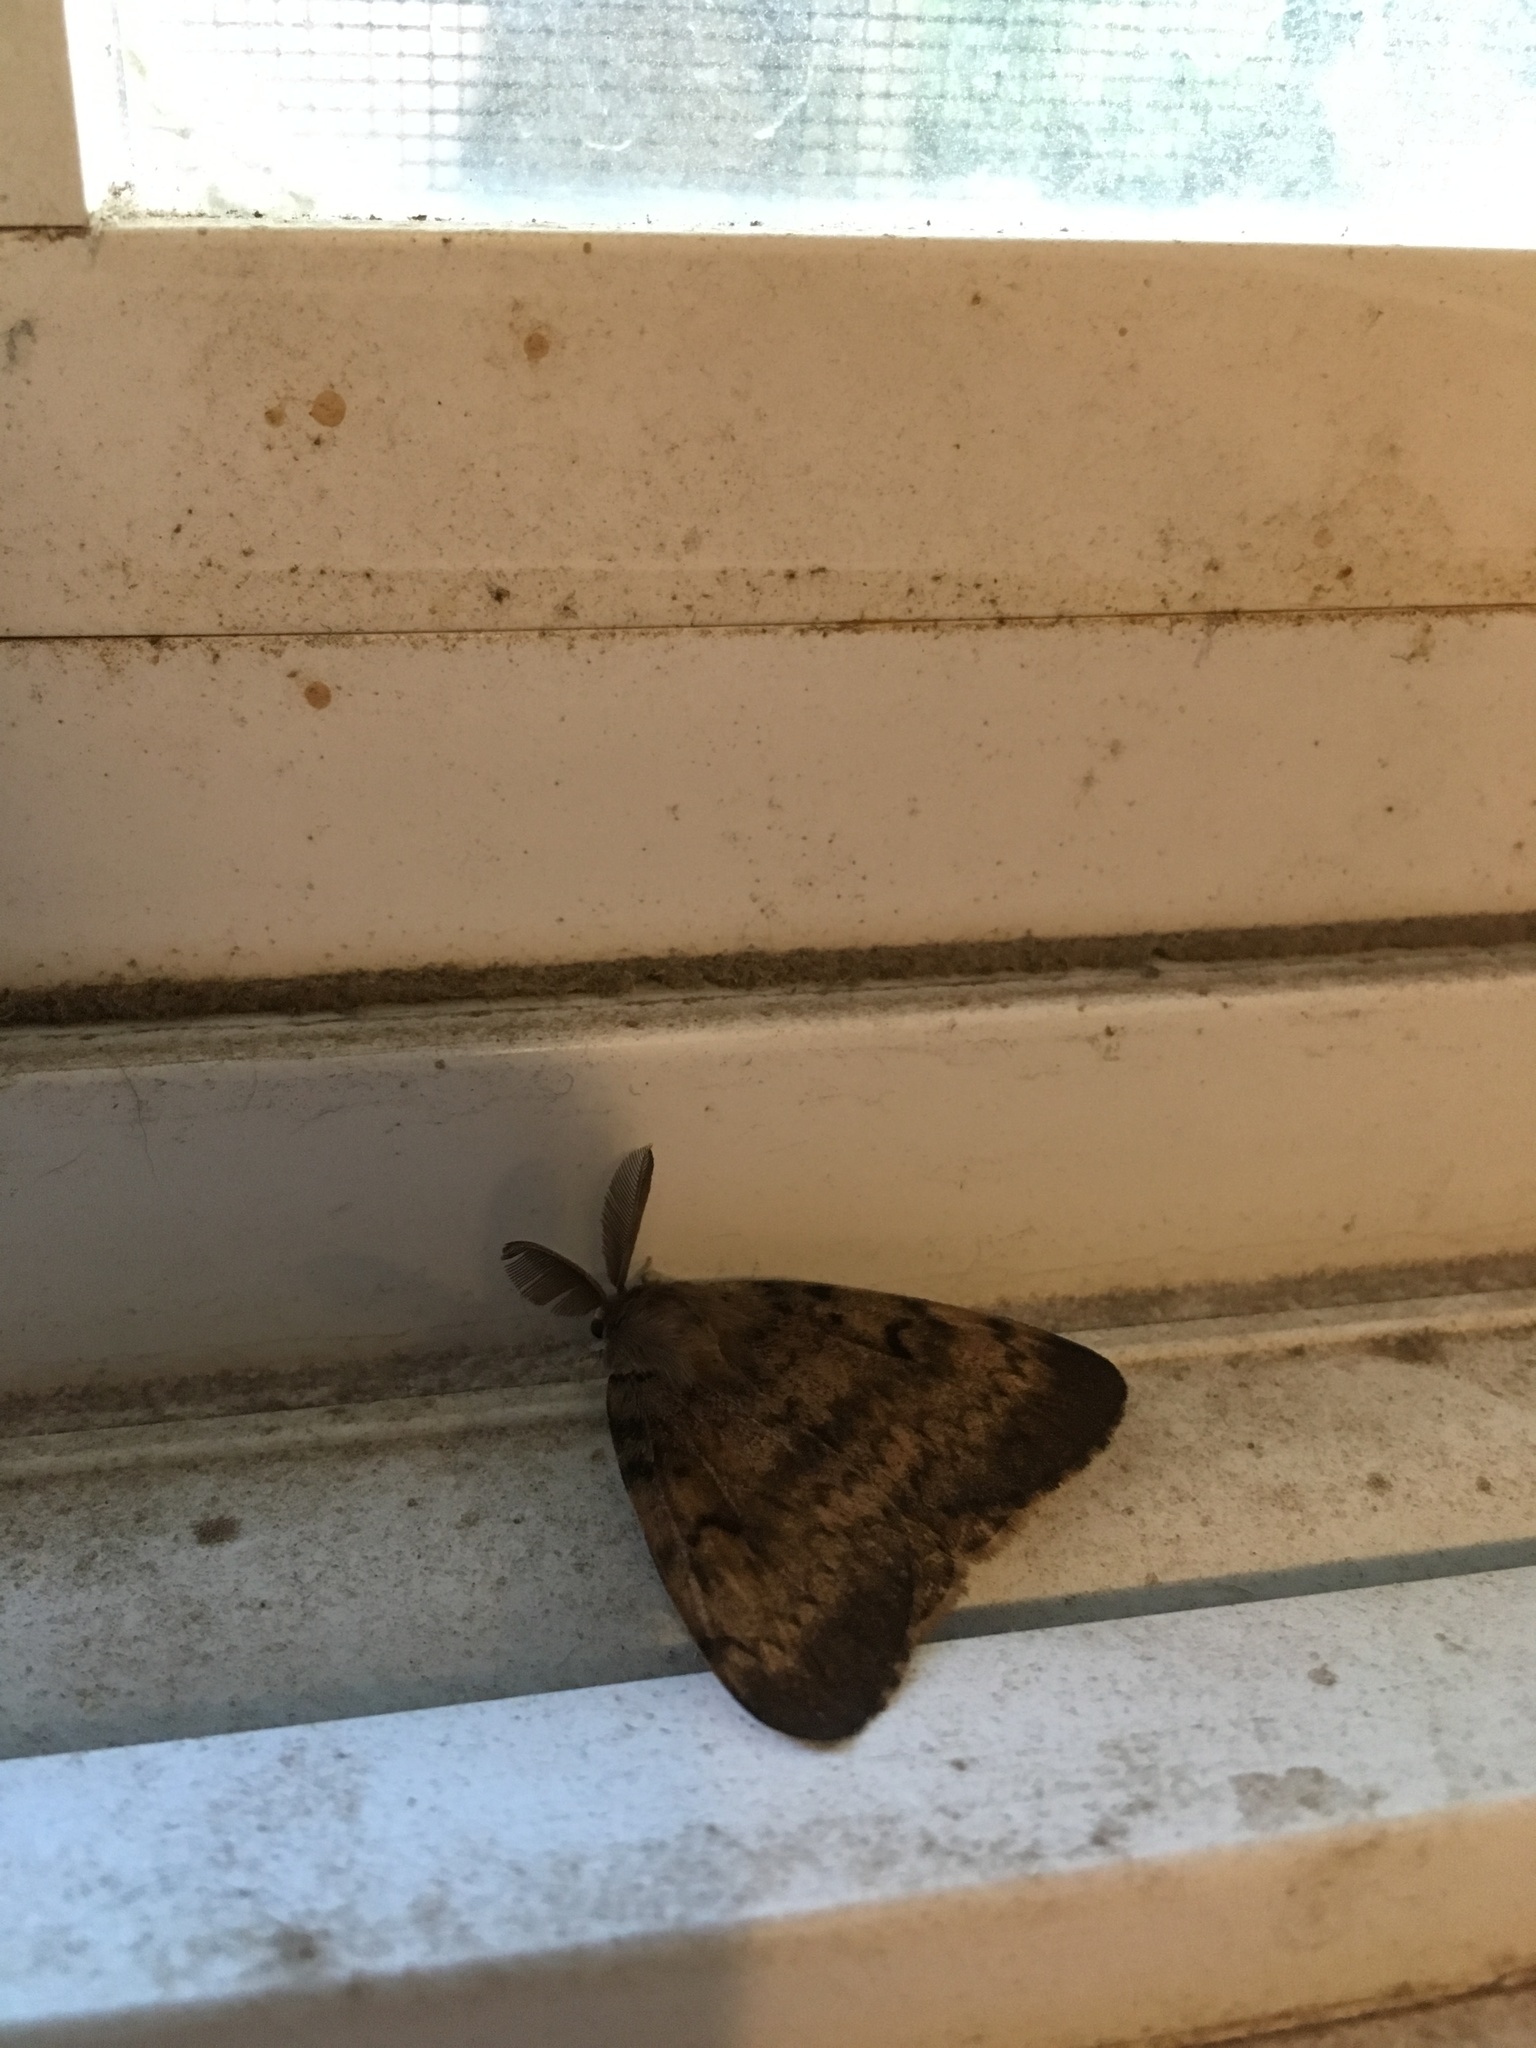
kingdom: Animalia
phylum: Arthropoda
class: Insecta
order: Lepidoptera
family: Erebidae
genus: Lymantria
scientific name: Lymantria dispar
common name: Gypsy moth
